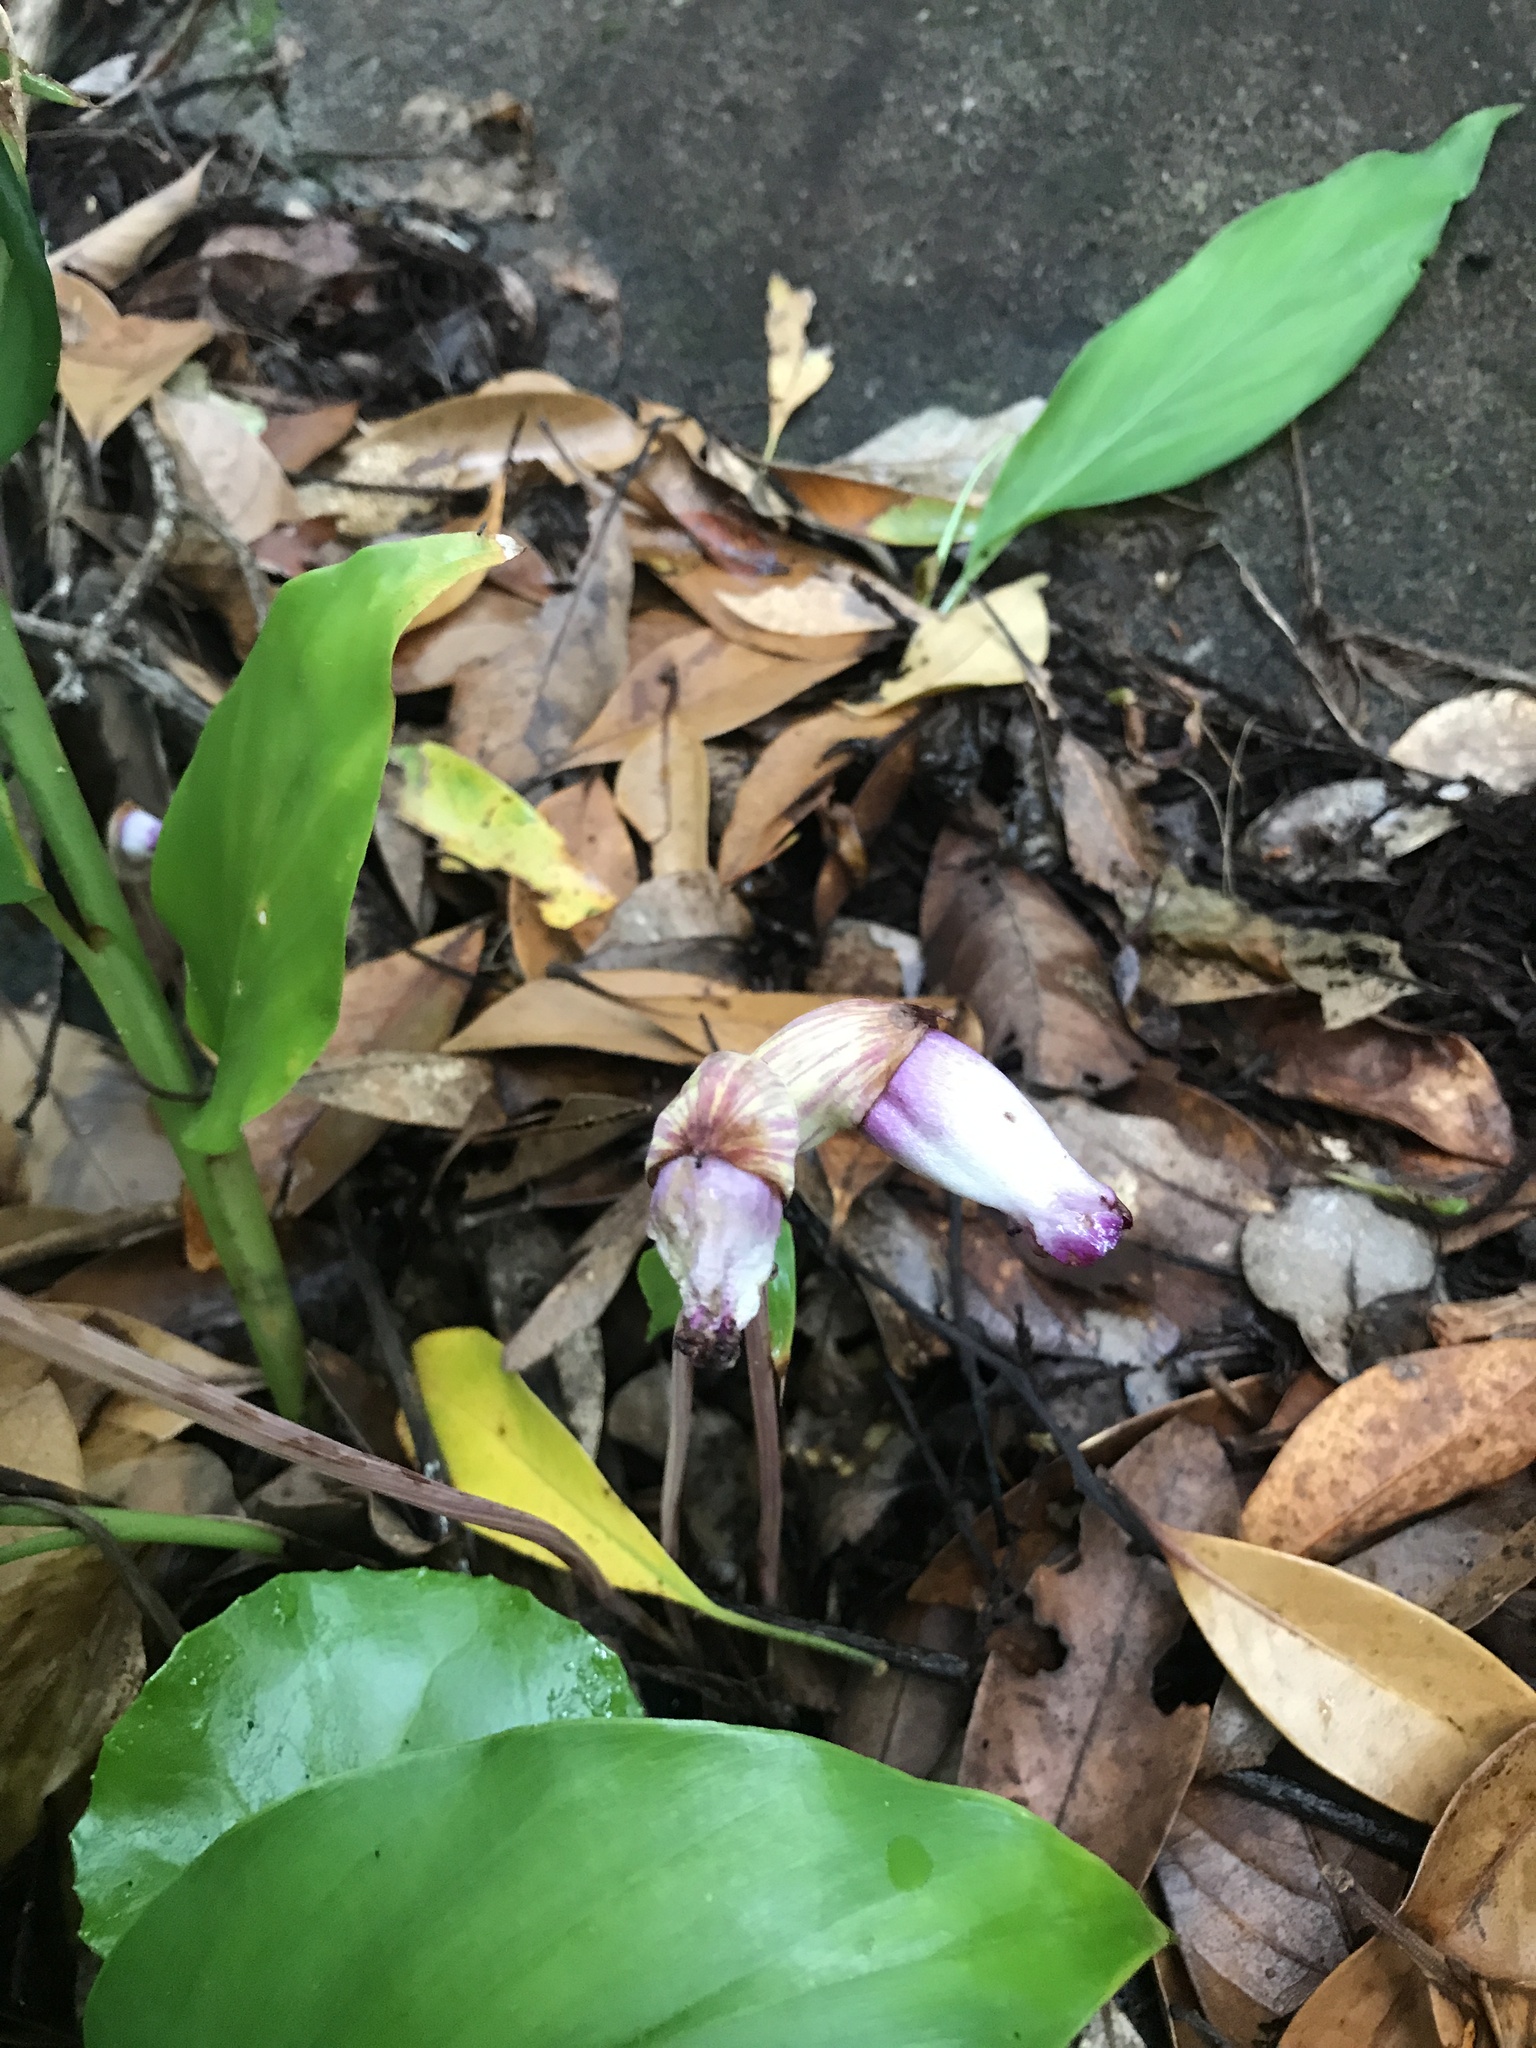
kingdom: Plantae
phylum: Tracheophyta
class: Magnoliopsida
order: Lamiales
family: Orobanchaceae
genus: Aeginetia
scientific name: Aeginetia indica
